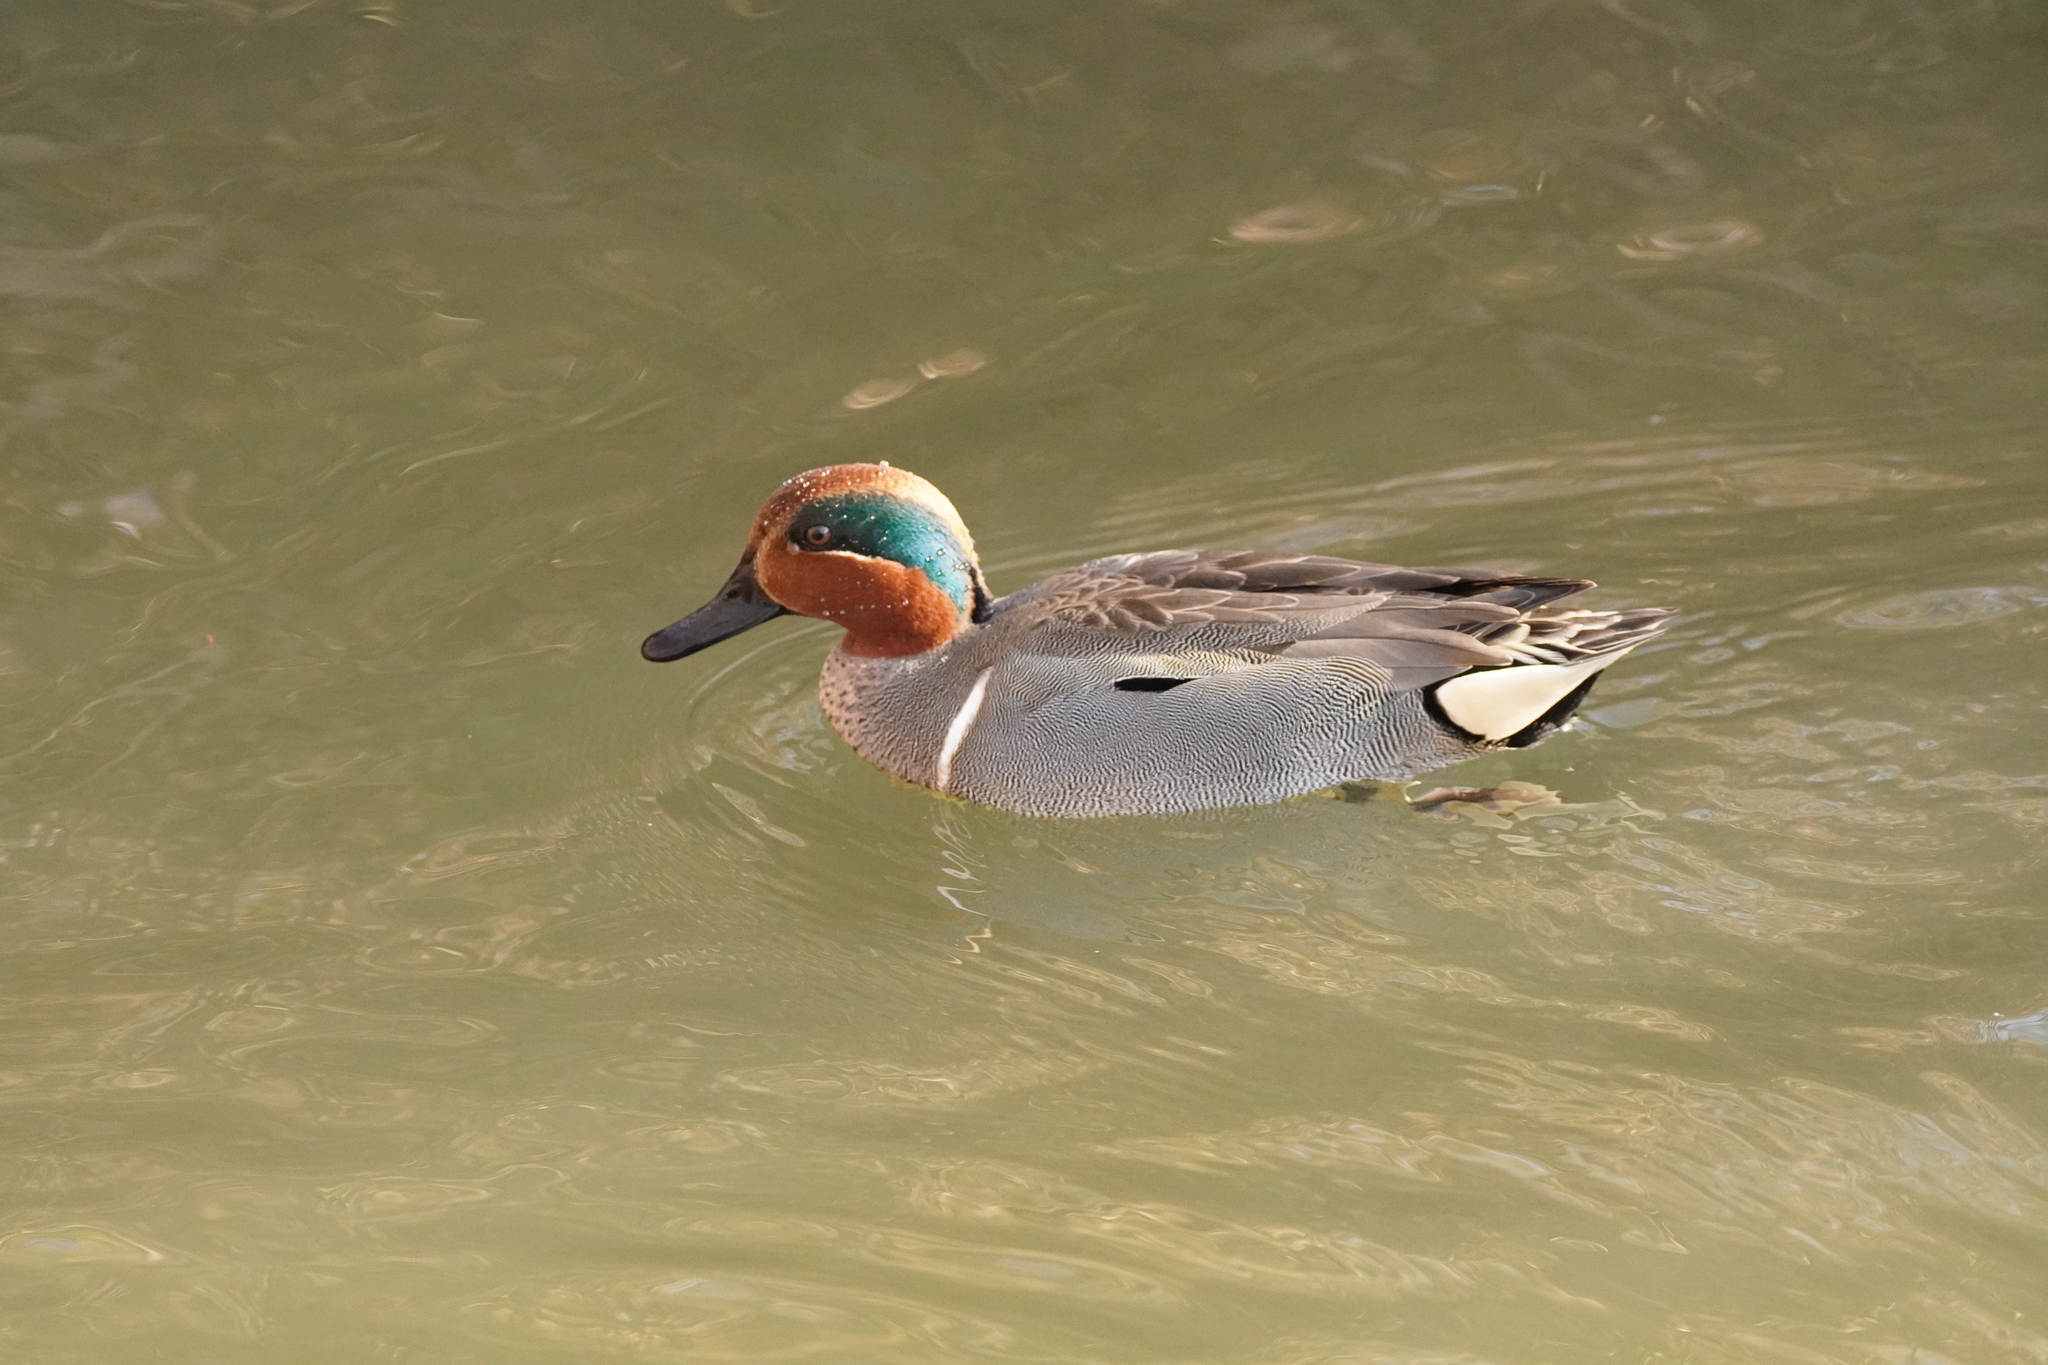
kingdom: Animalia
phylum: Chordata
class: Aves
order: Anseriformes
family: Anatidae
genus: Anas
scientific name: Anas crecca
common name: Eurasian teal
